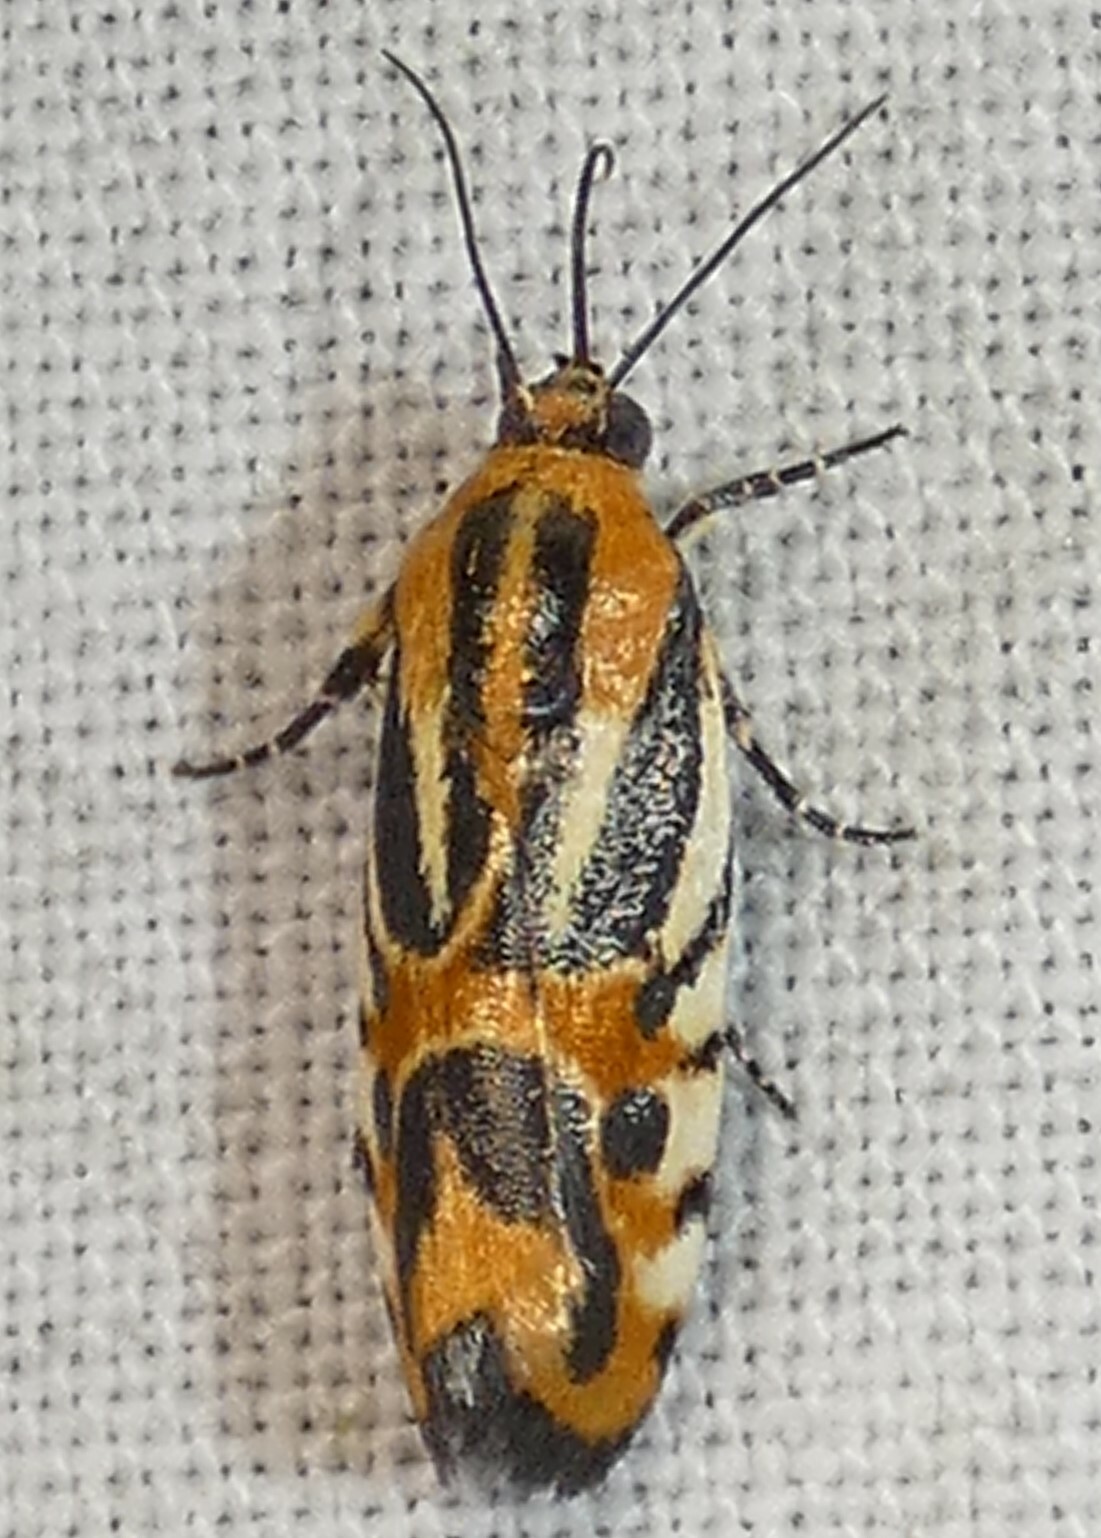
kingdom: Animalia
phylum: Arthropoda
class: Insecta
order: Lepidoptera
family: Noctuidae
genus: Acontia
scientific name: Acontia onagrus
